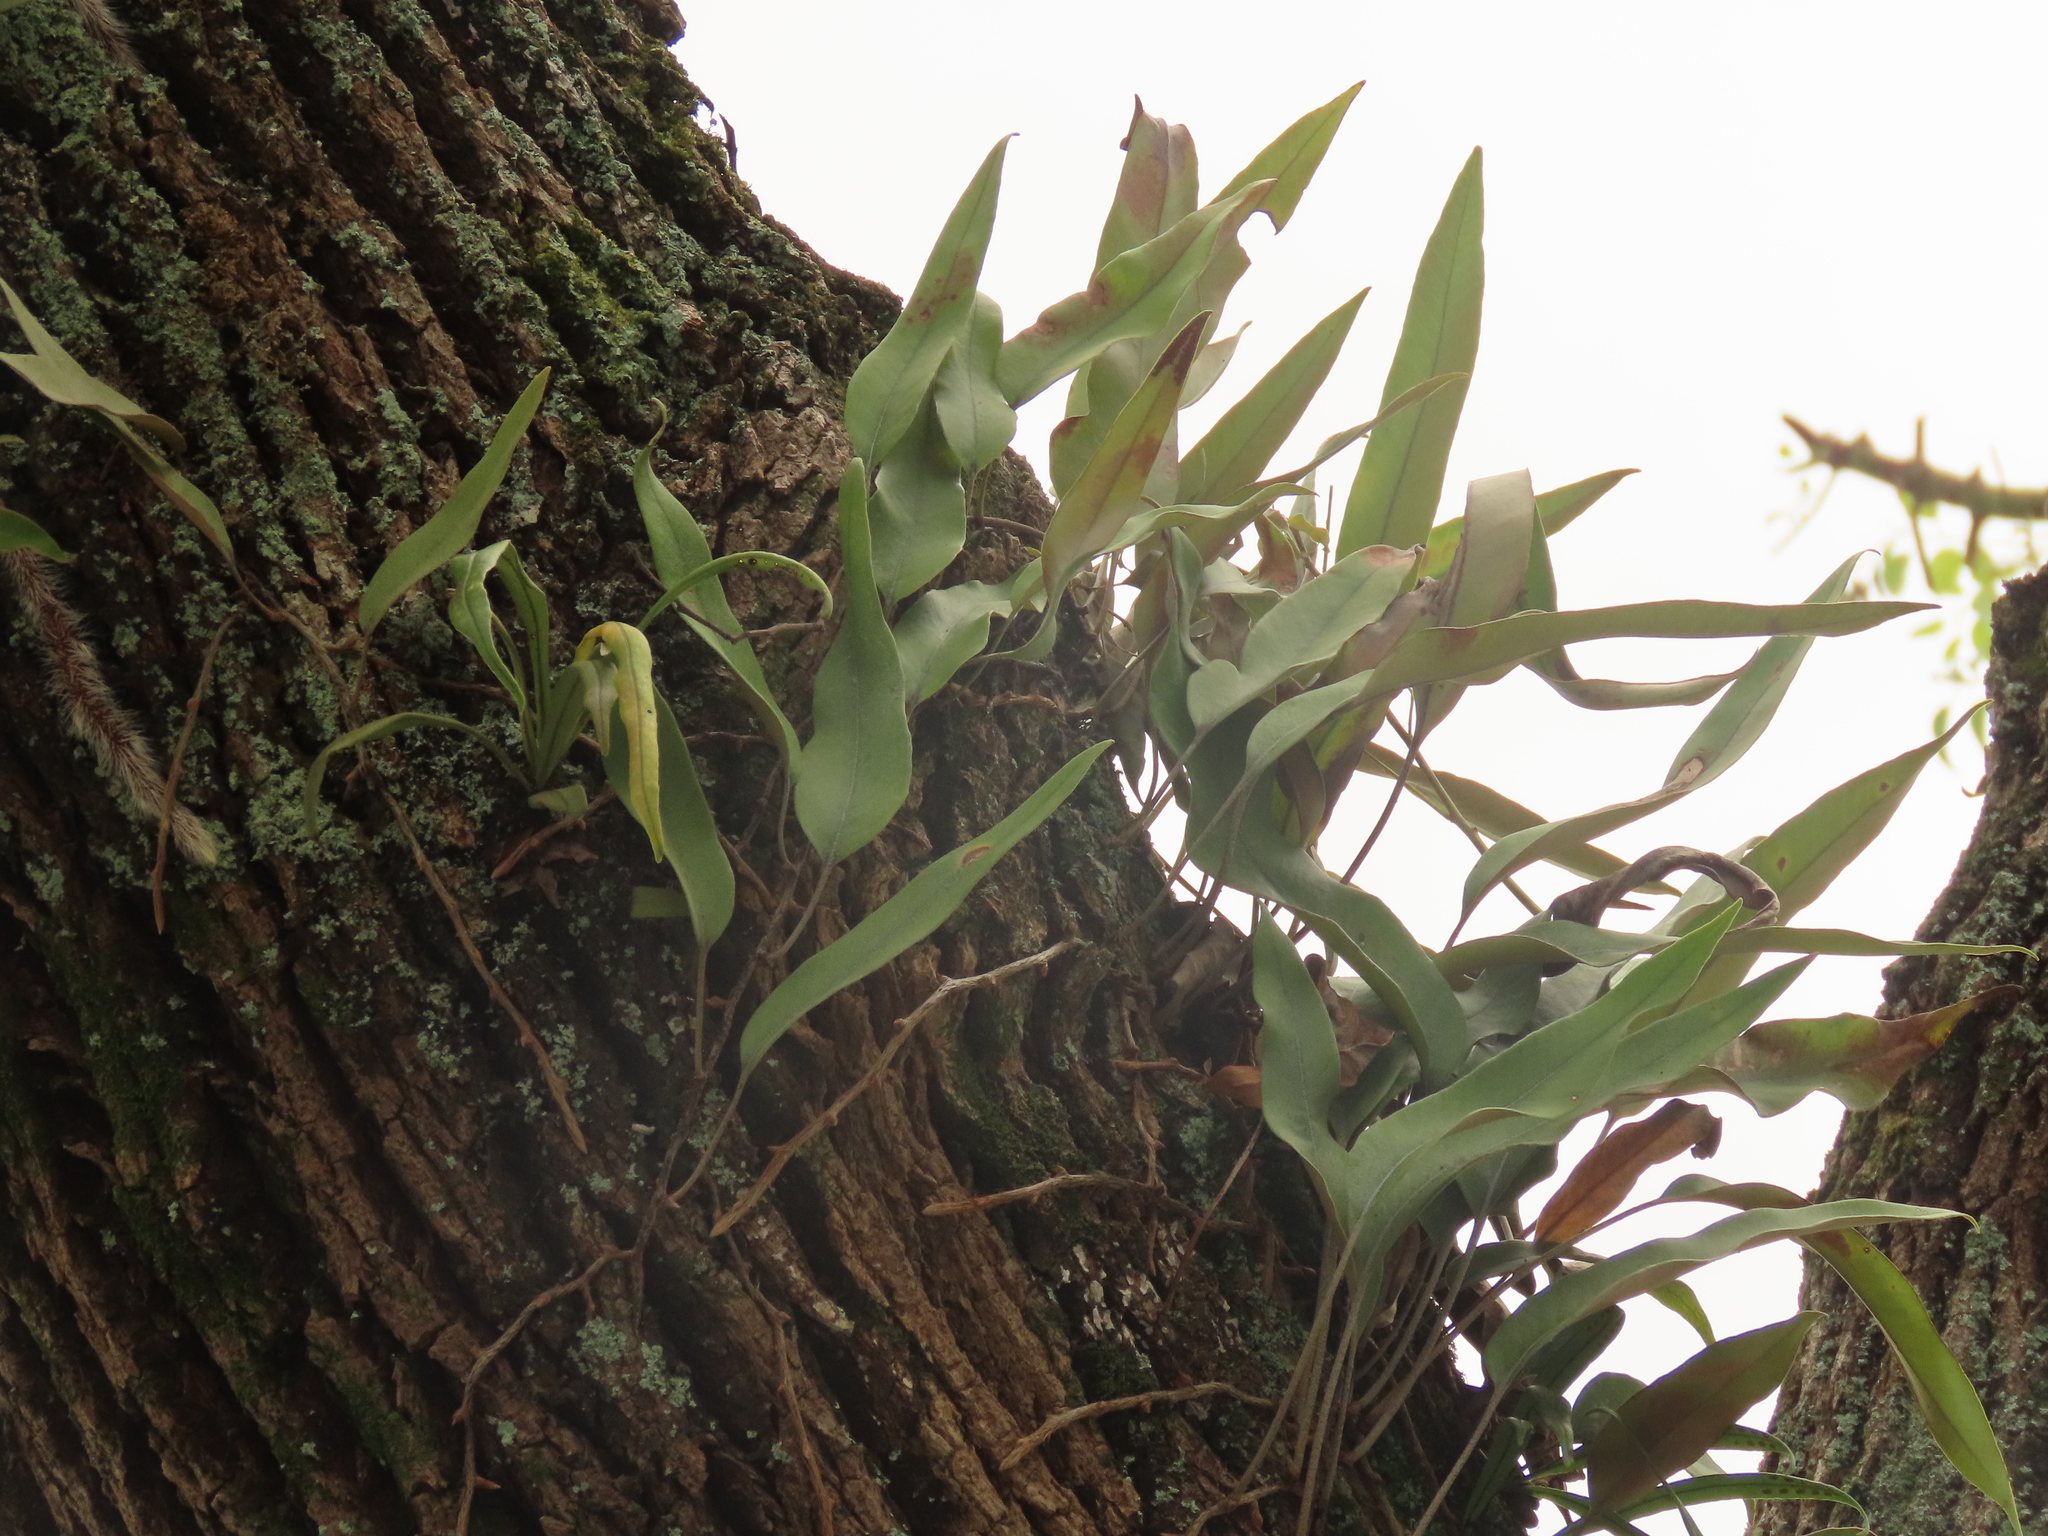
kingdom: Plantae
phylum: Tracheophyta
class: Polypodiopsida
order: Polypodiales
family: Polypodiaceae
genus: Pyrrosia
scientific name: Pyrrosia lingua
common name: Felt fern
